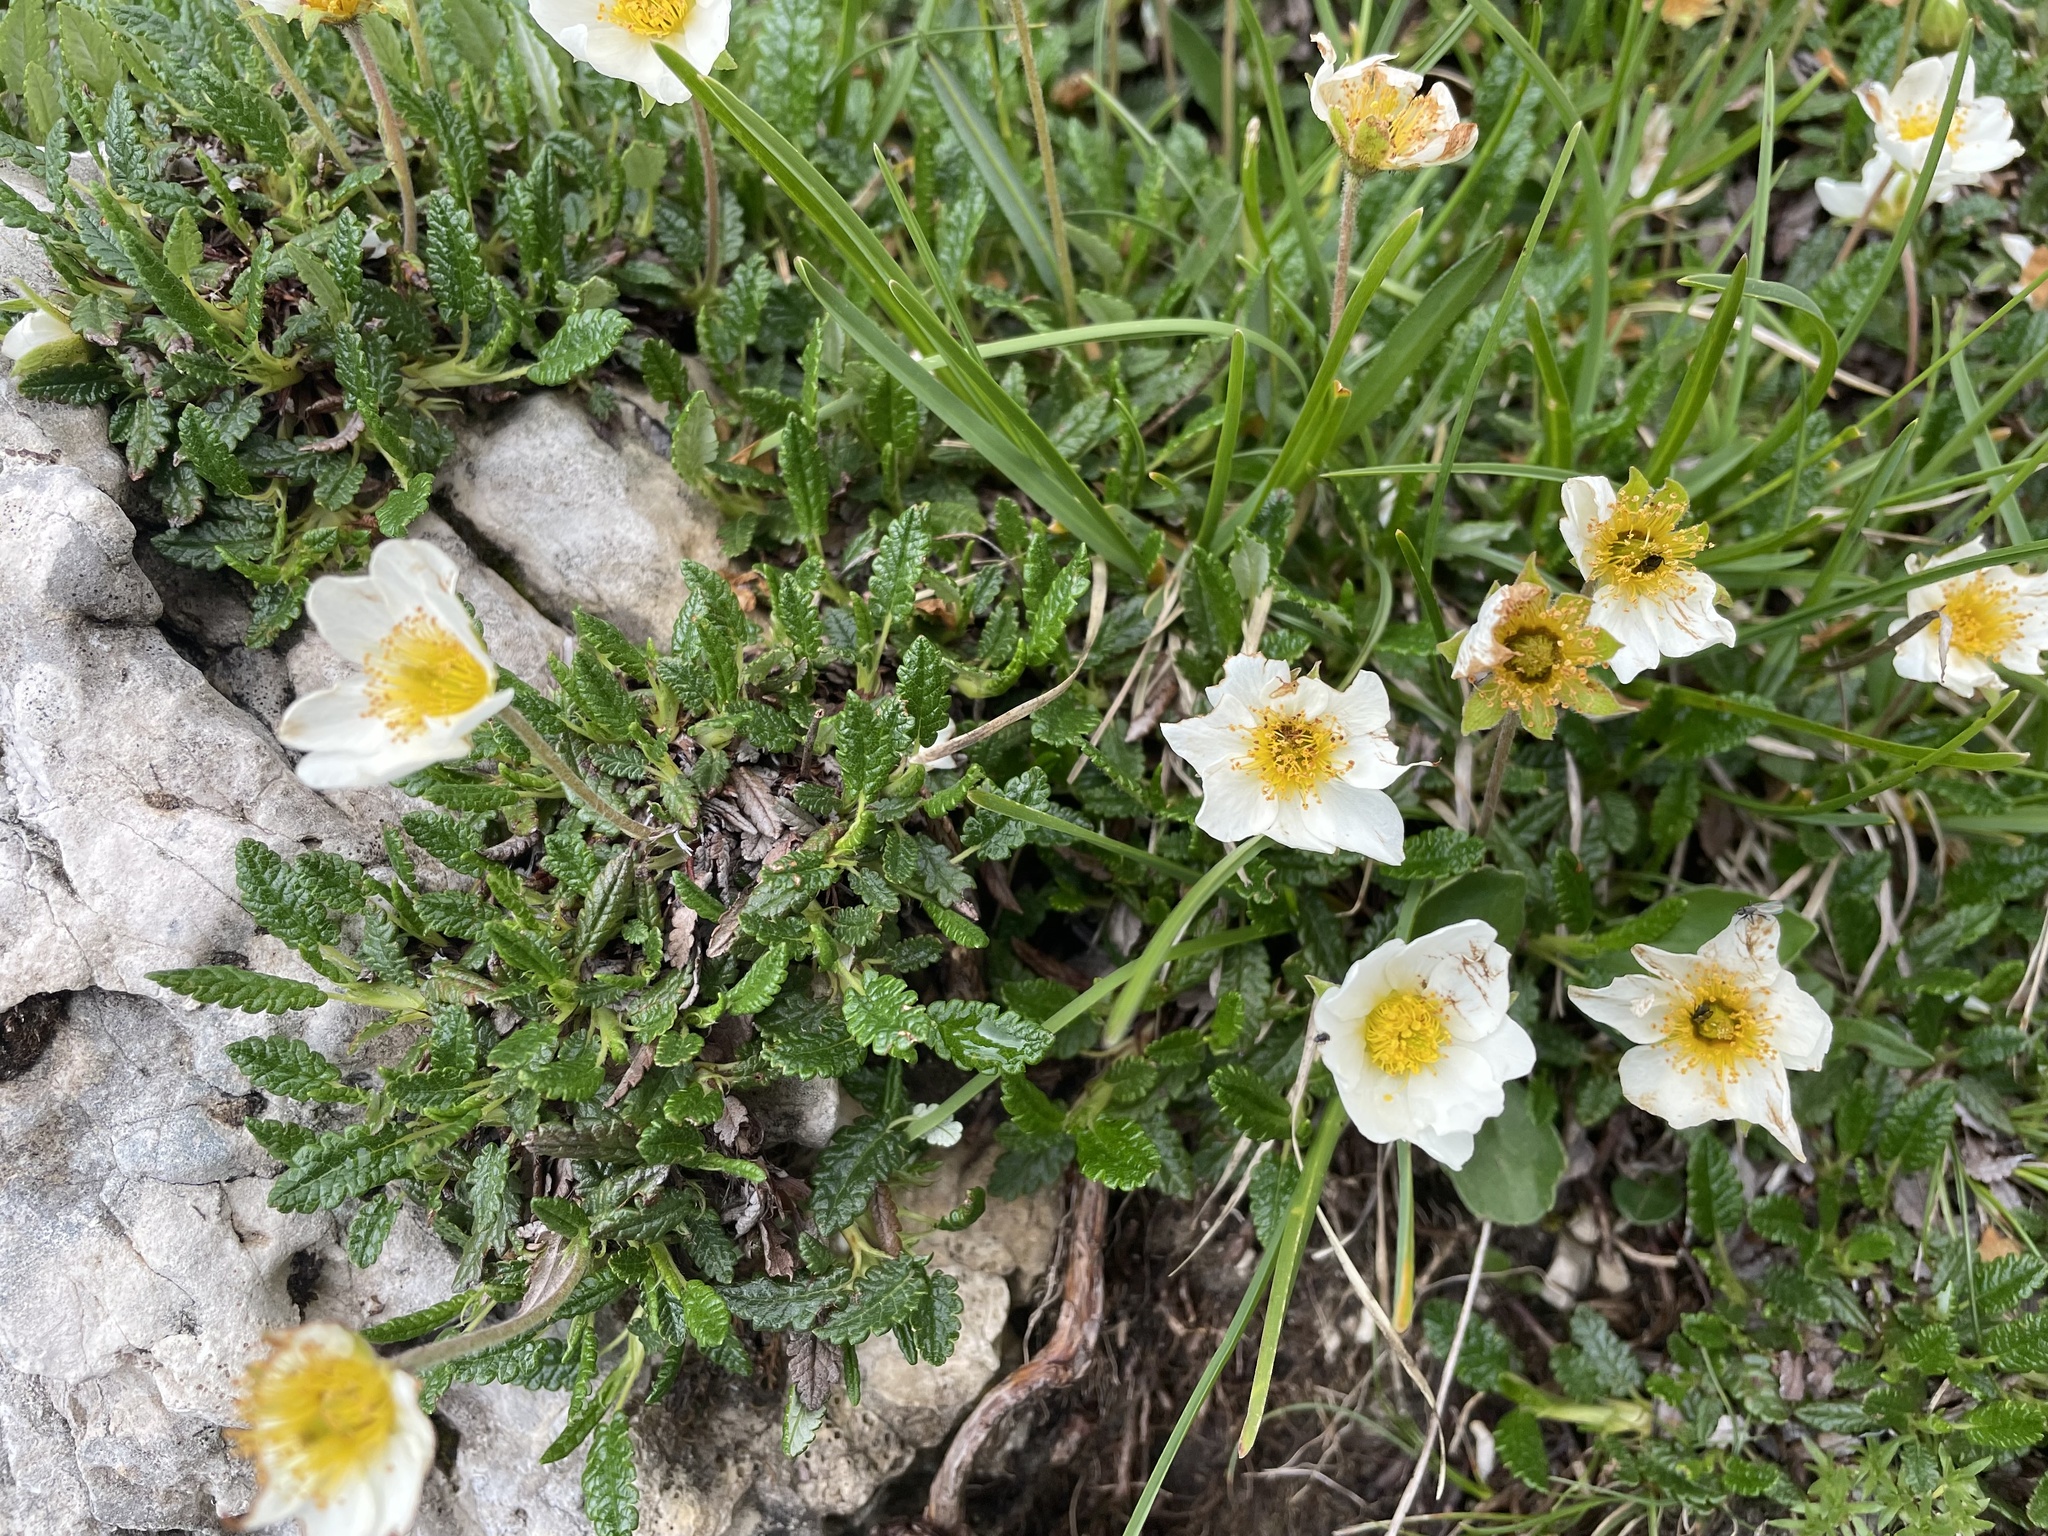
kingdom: Plantae
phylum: Tracheophyta
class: Magnoliopsida
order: Rosales
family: Rosaceae
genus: Dryas
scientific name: Dryas octopetala
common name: Eight-petal mountain-avens
